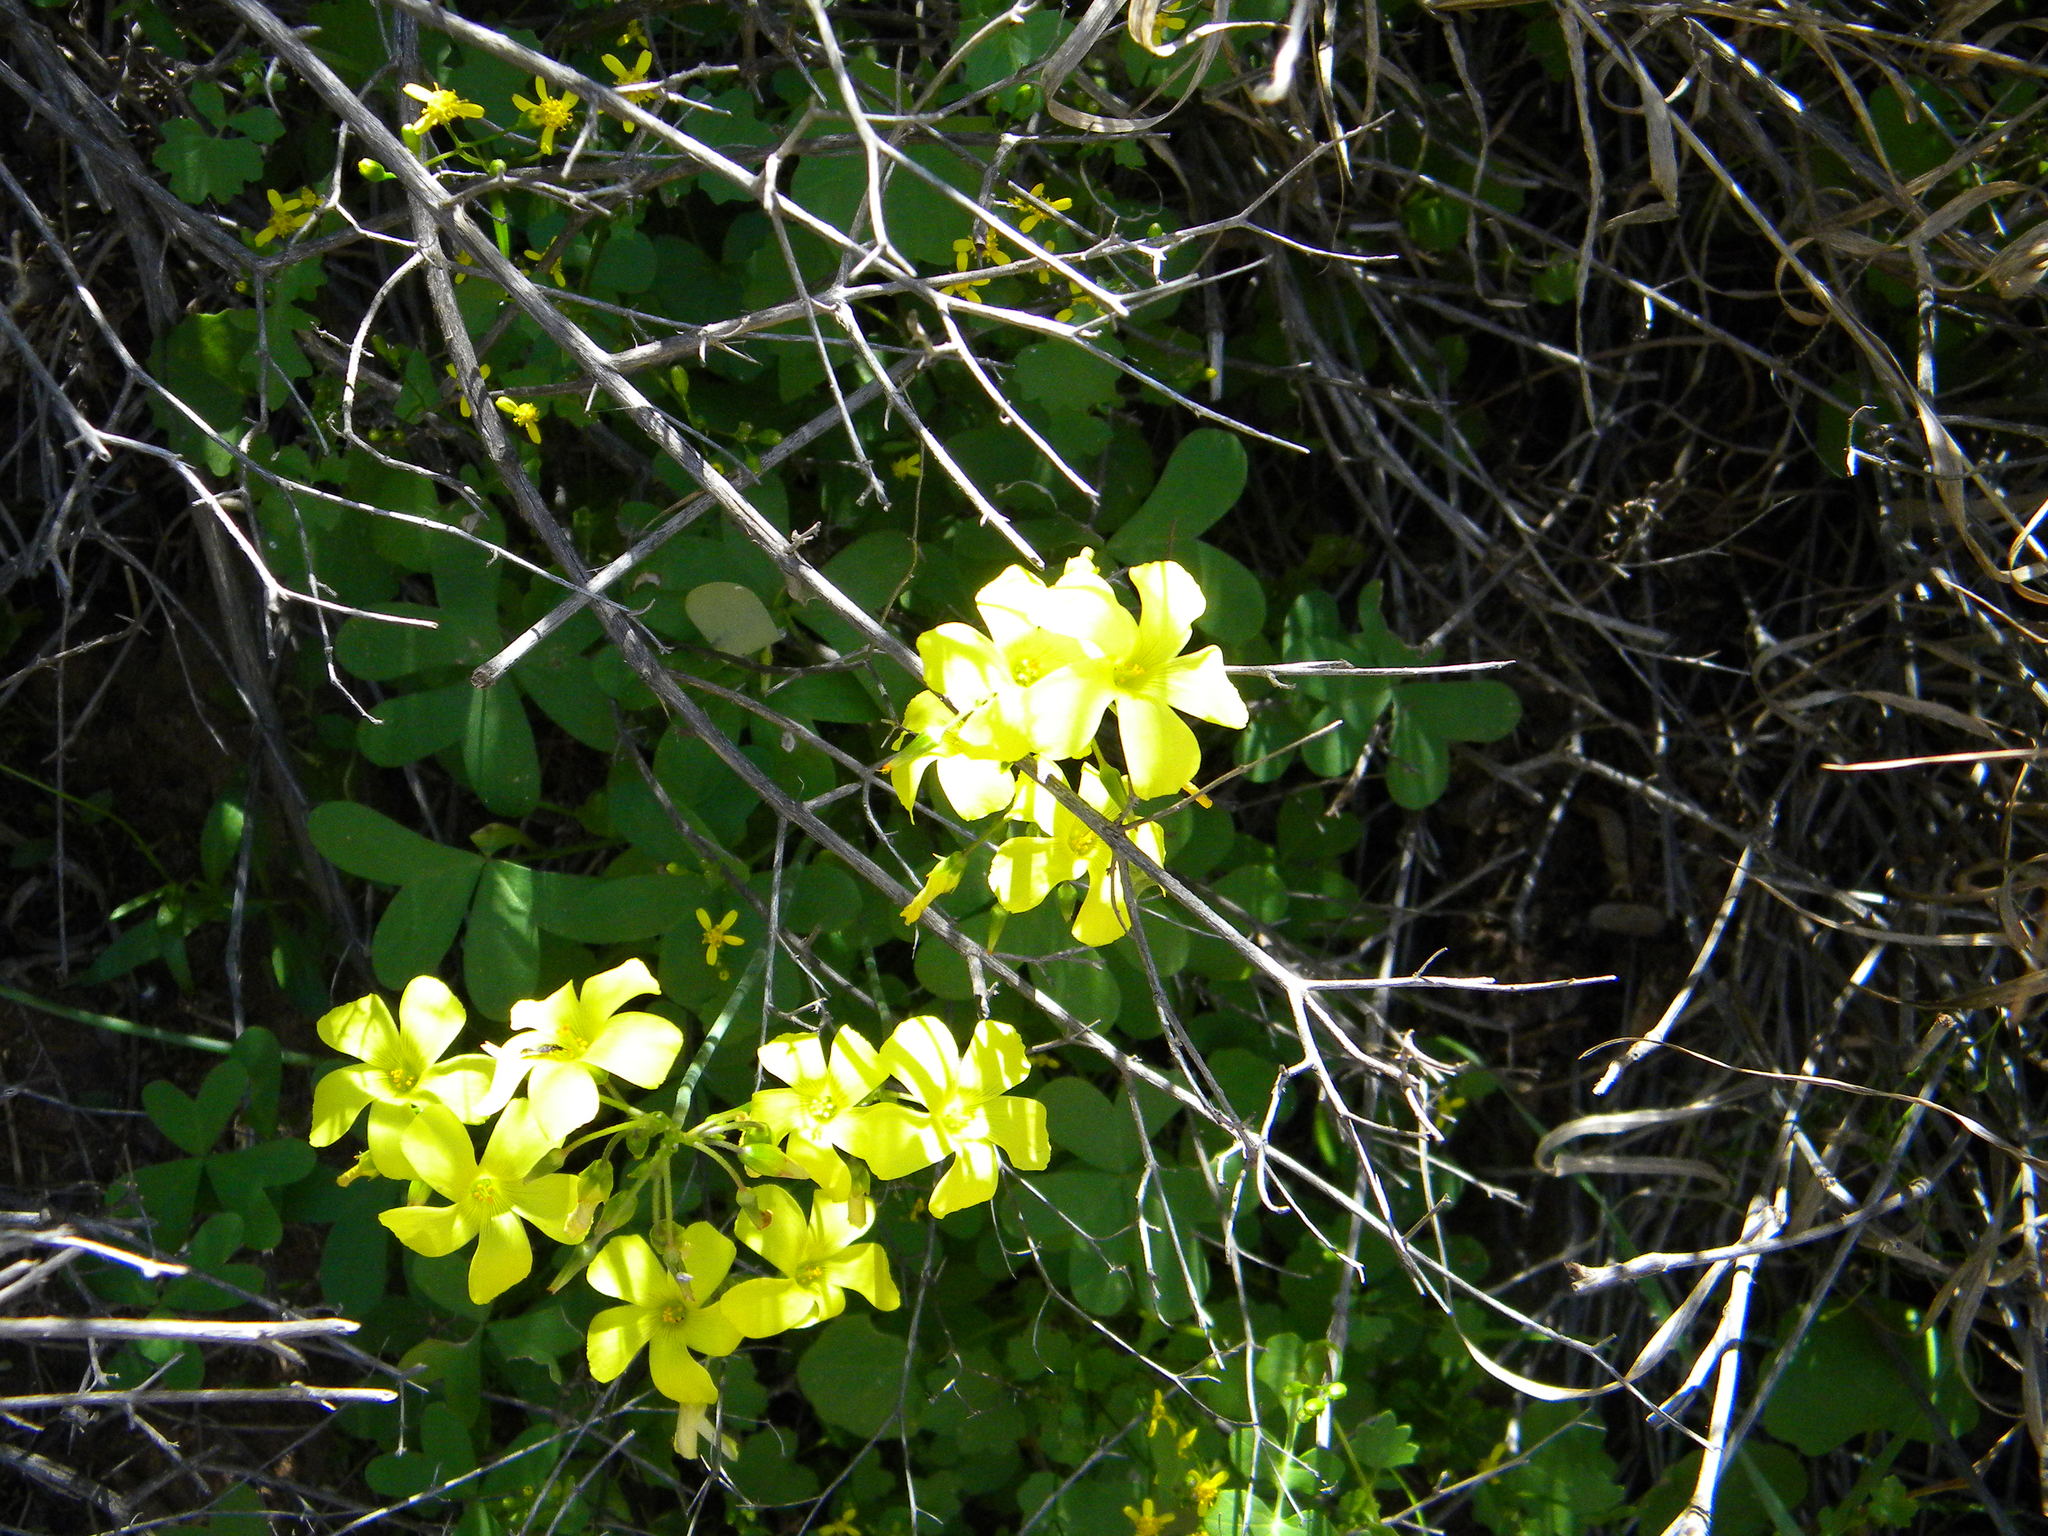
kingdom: Plantae
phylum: Tracheophyta
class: Magnoliopsida
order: Oxalidales
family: Oxalidaceae
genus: Oxalis
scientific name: Oxalis pes-caprae
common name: Bermuda-buttercup
